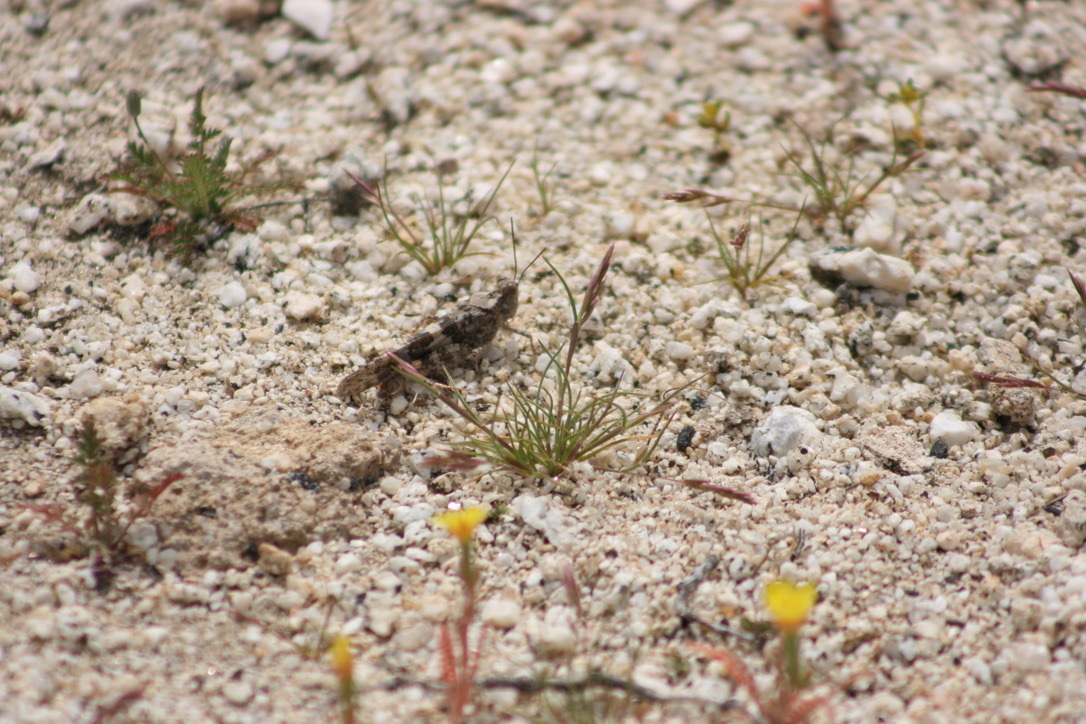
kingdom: Animalia
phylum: Arthropoda
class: Insecta
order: Orthoptera
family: Acrididae
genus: Trimerotropis
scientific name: Trimerotropis pallidipennis
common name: Pallid-winged grasshopper
